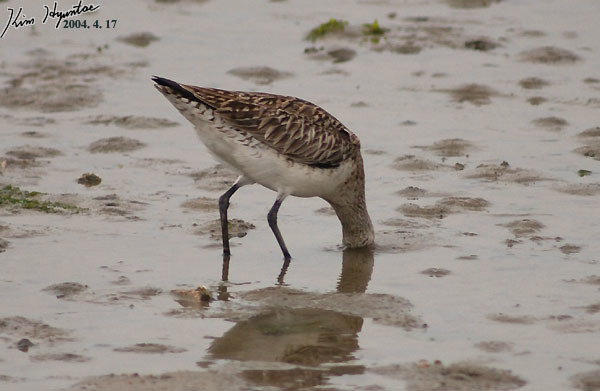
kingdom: Animalia
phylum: Chordata
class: Aves
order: Charadriiformes
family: Scolopacidae
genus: Limosa
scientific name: Limosa lapponica
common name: Bar-tailed godwit
